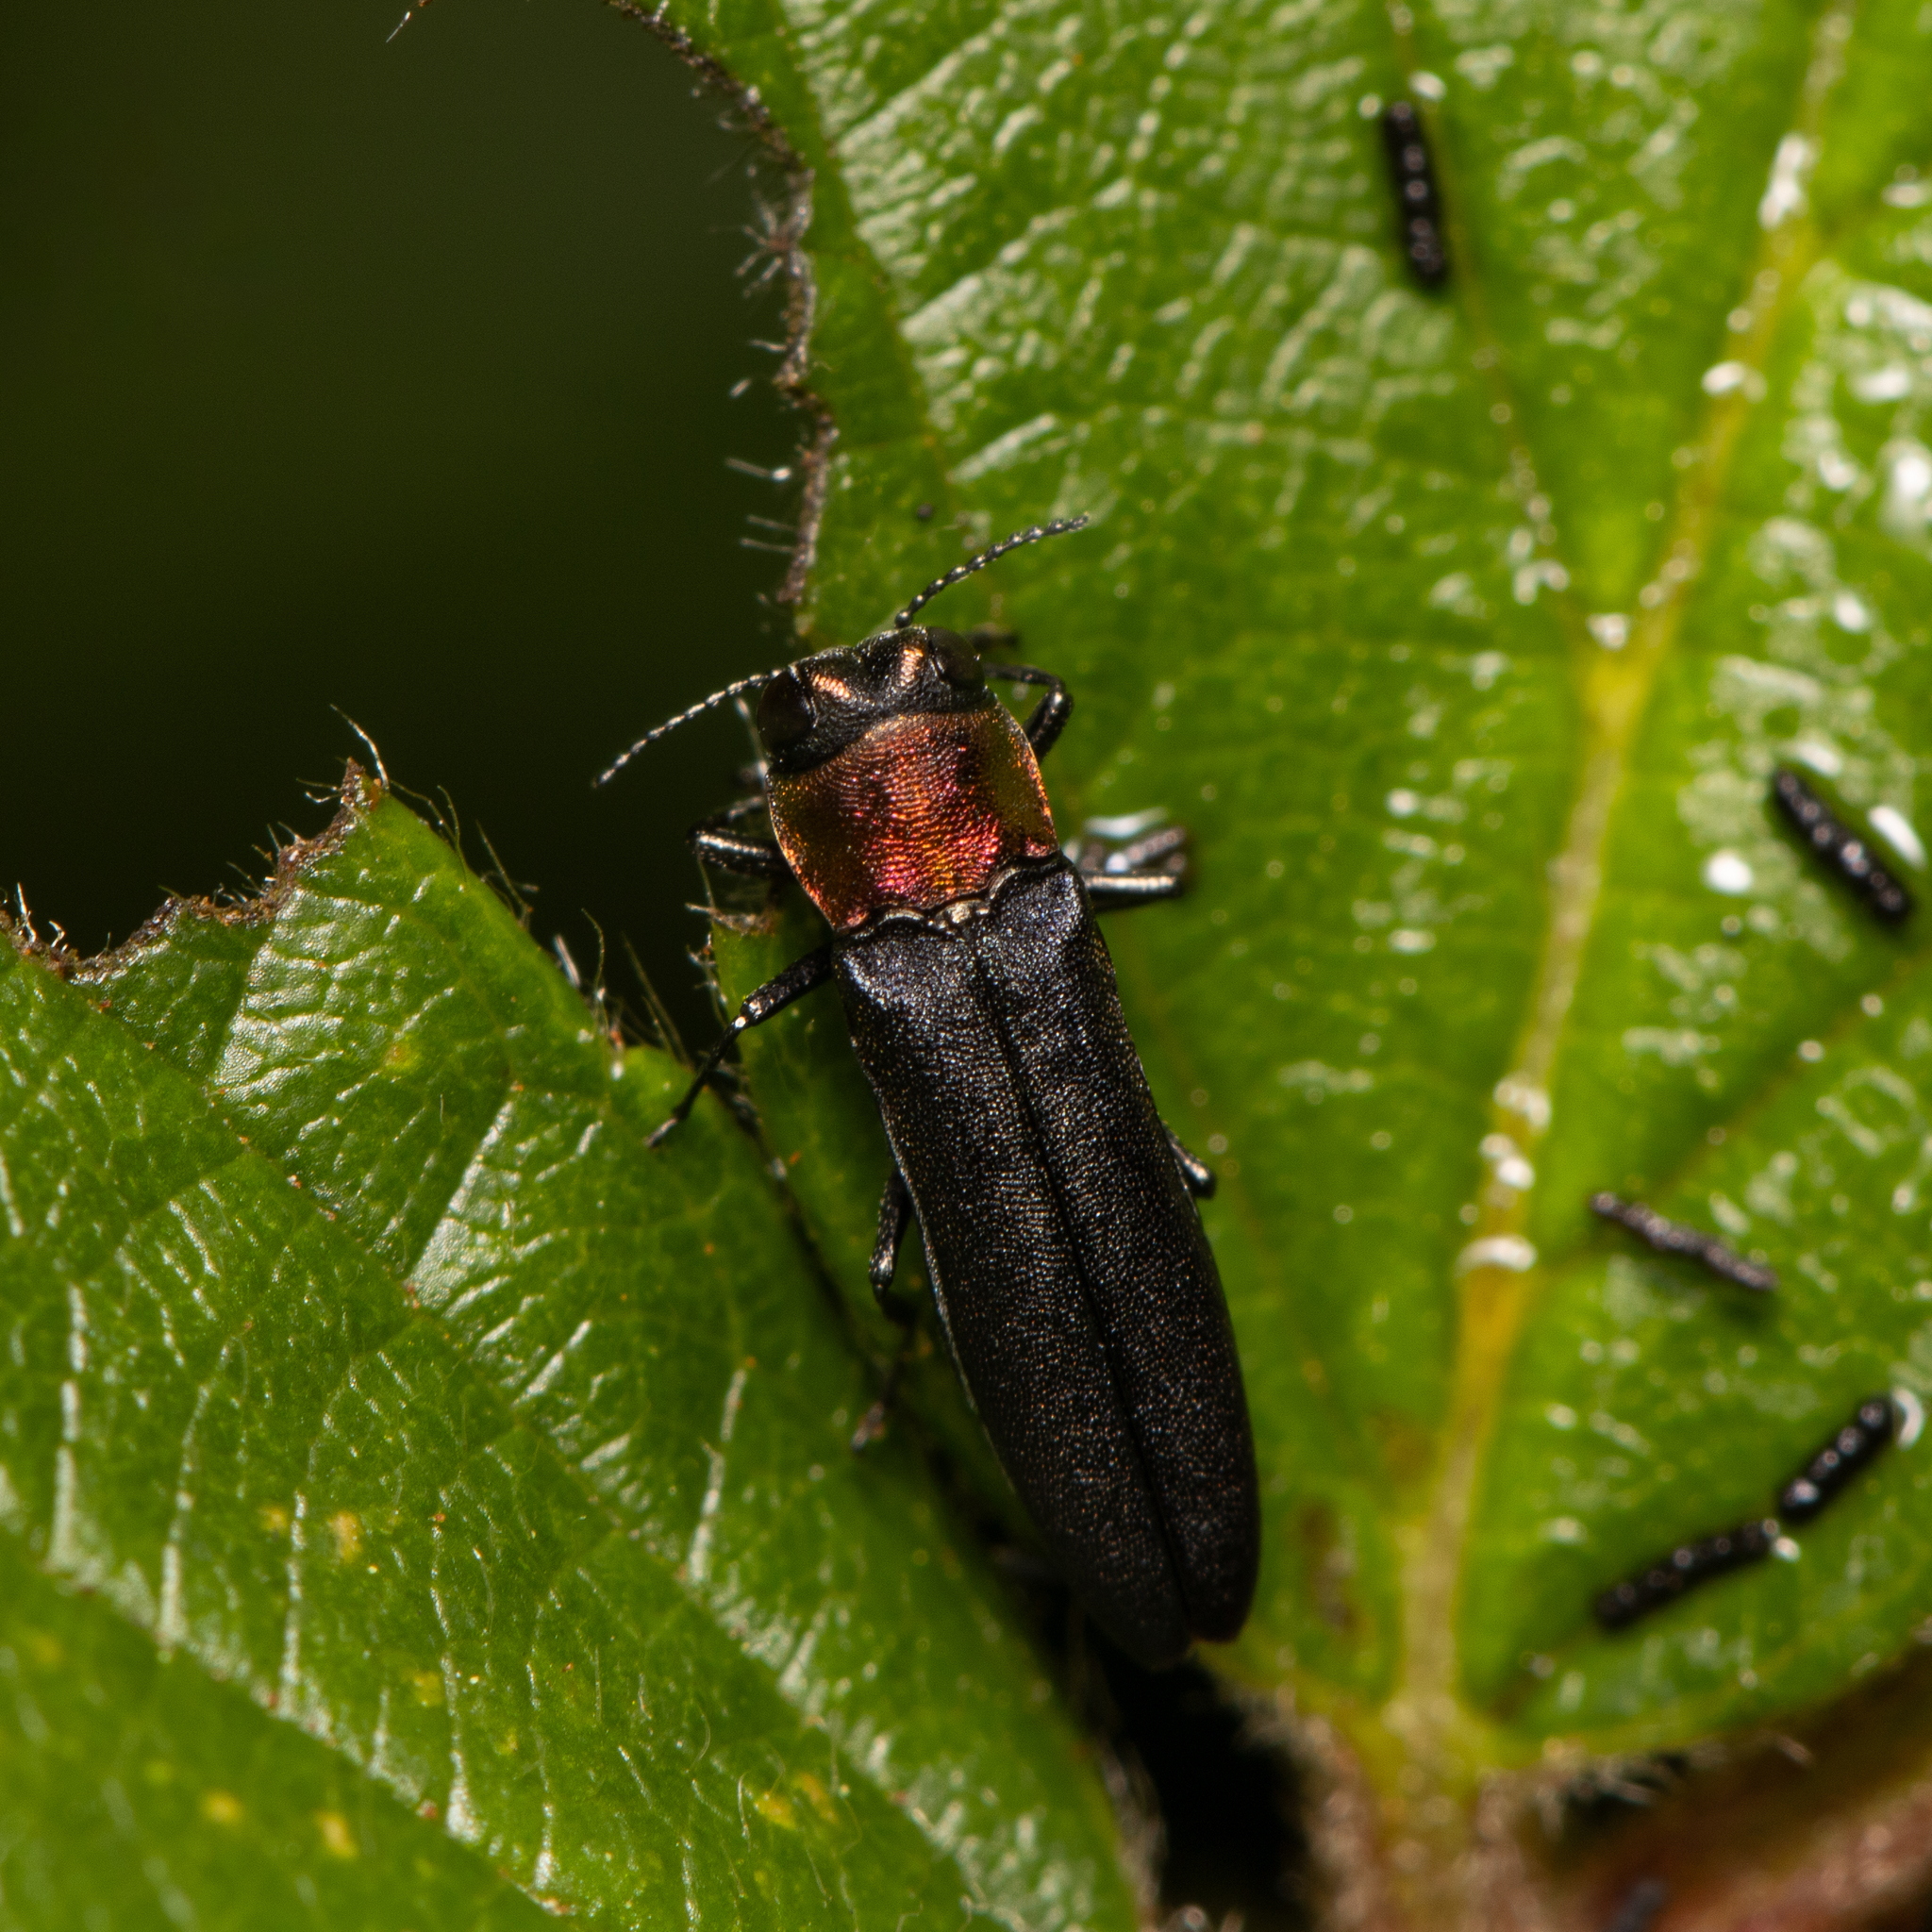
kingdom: Animalia
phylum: Arthropoda
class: Insecta
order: Coleoptera
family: Buprestidae
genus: Agrilus
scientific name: Agrilus ruficollis
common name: Red-necked cane borer beetle
